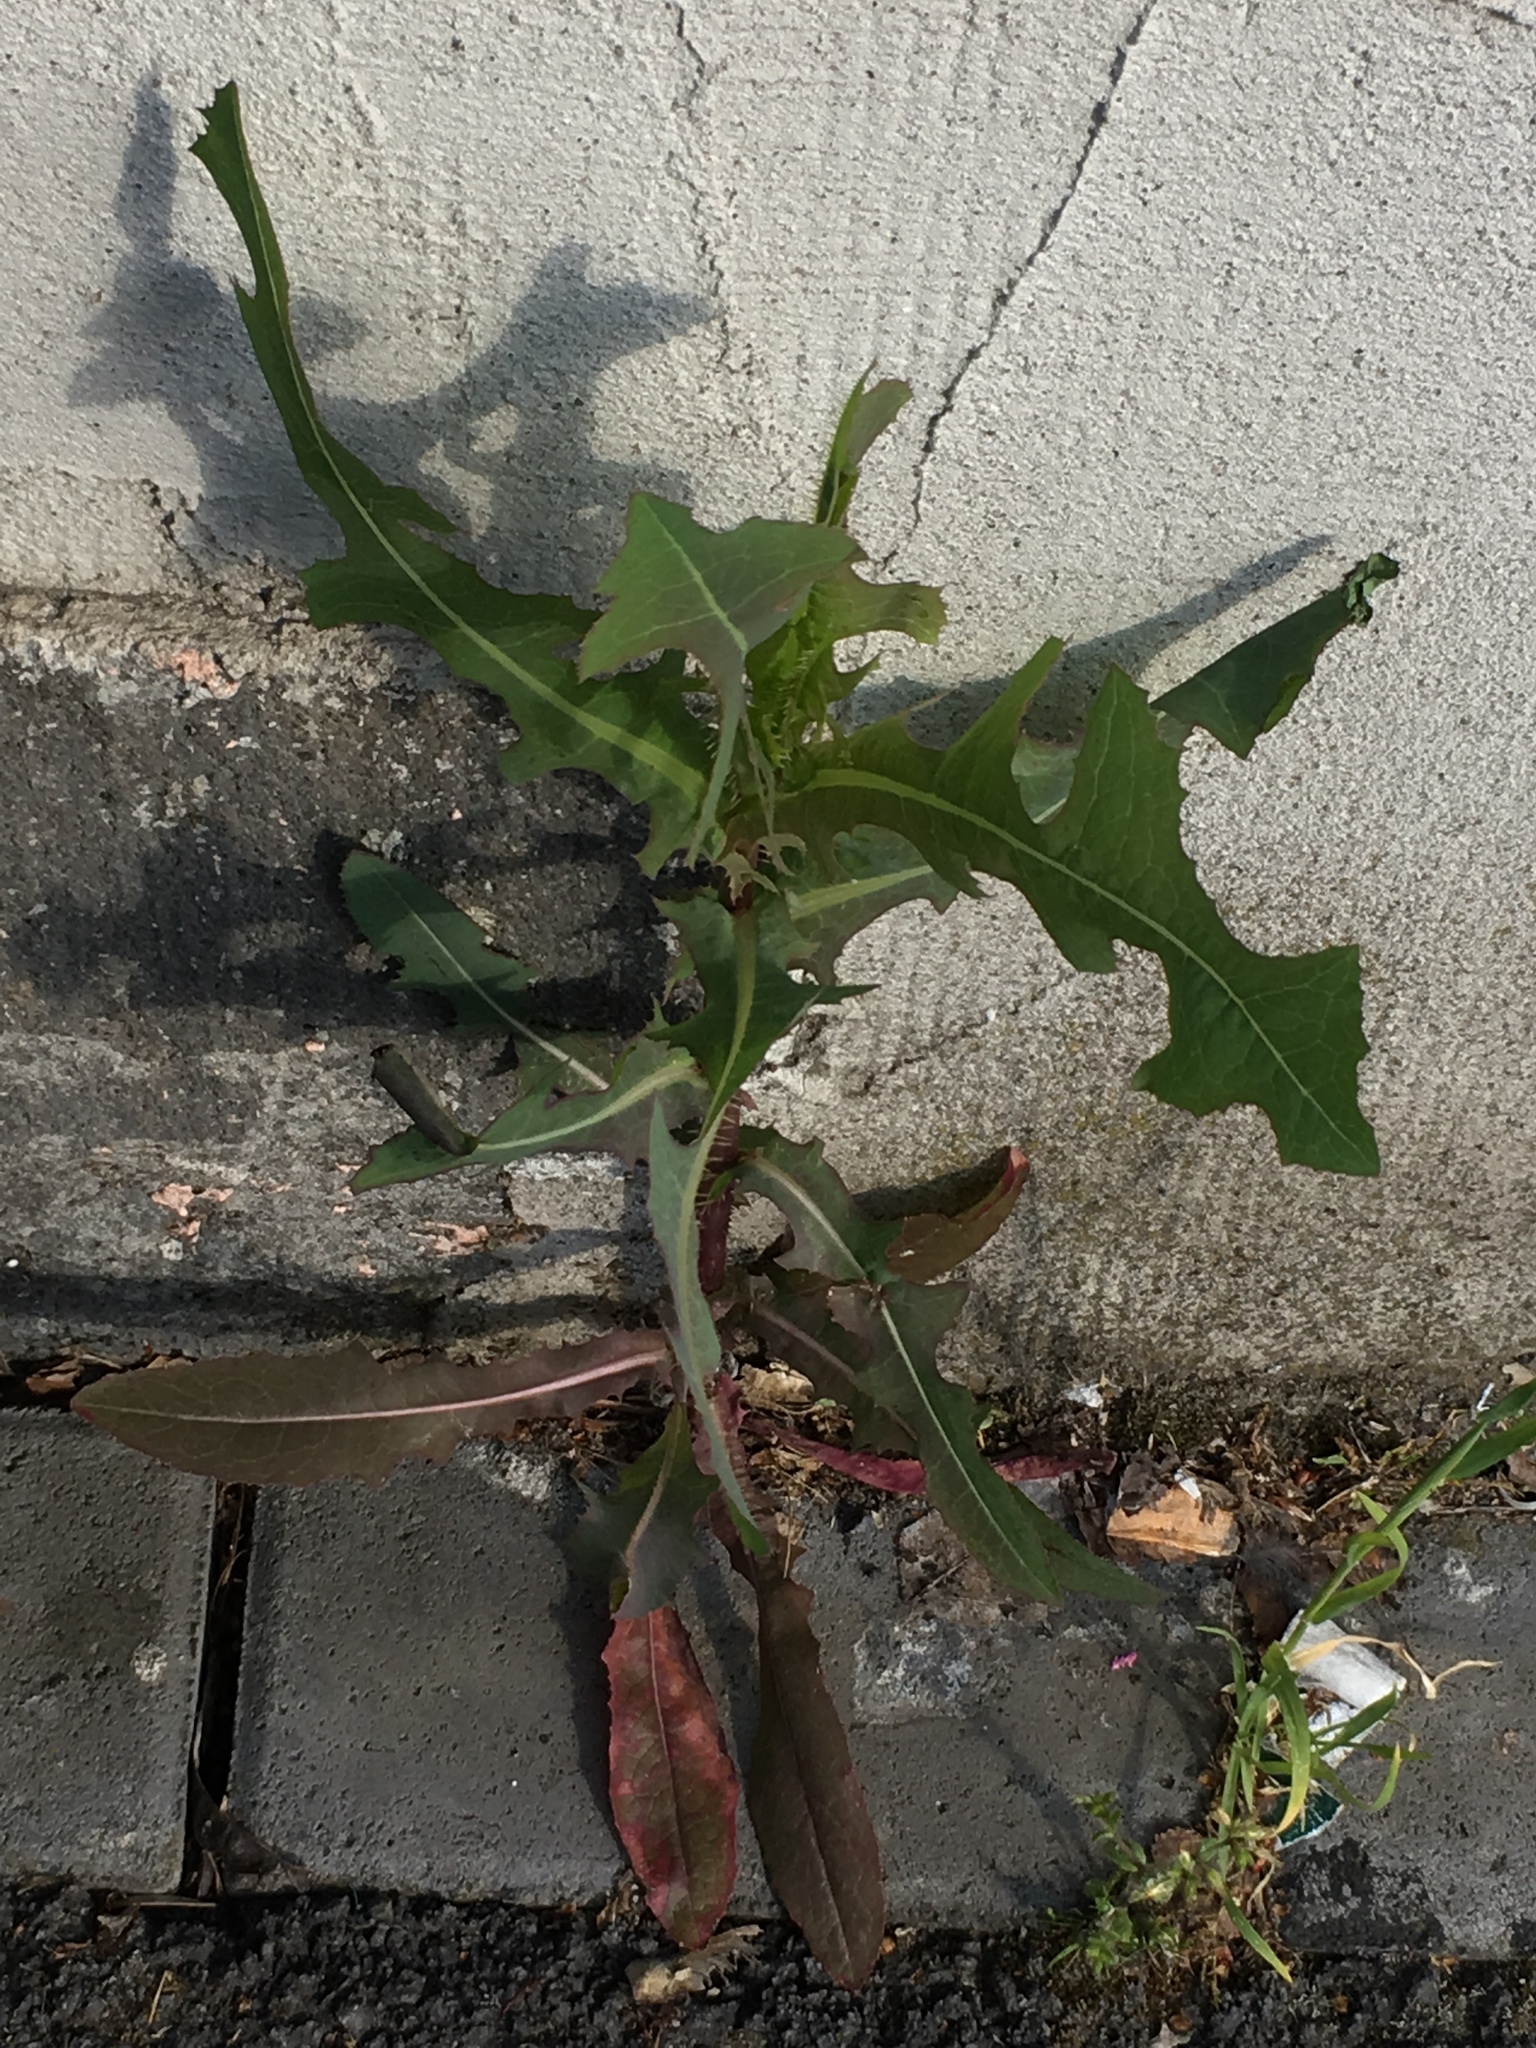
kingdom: Plantae
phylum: Tracheophyta
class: Magnoliopsida
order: Asterales
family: Asteraceae
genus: Lactuca
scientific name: Lactuca serriola
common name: Prickly lettuce
